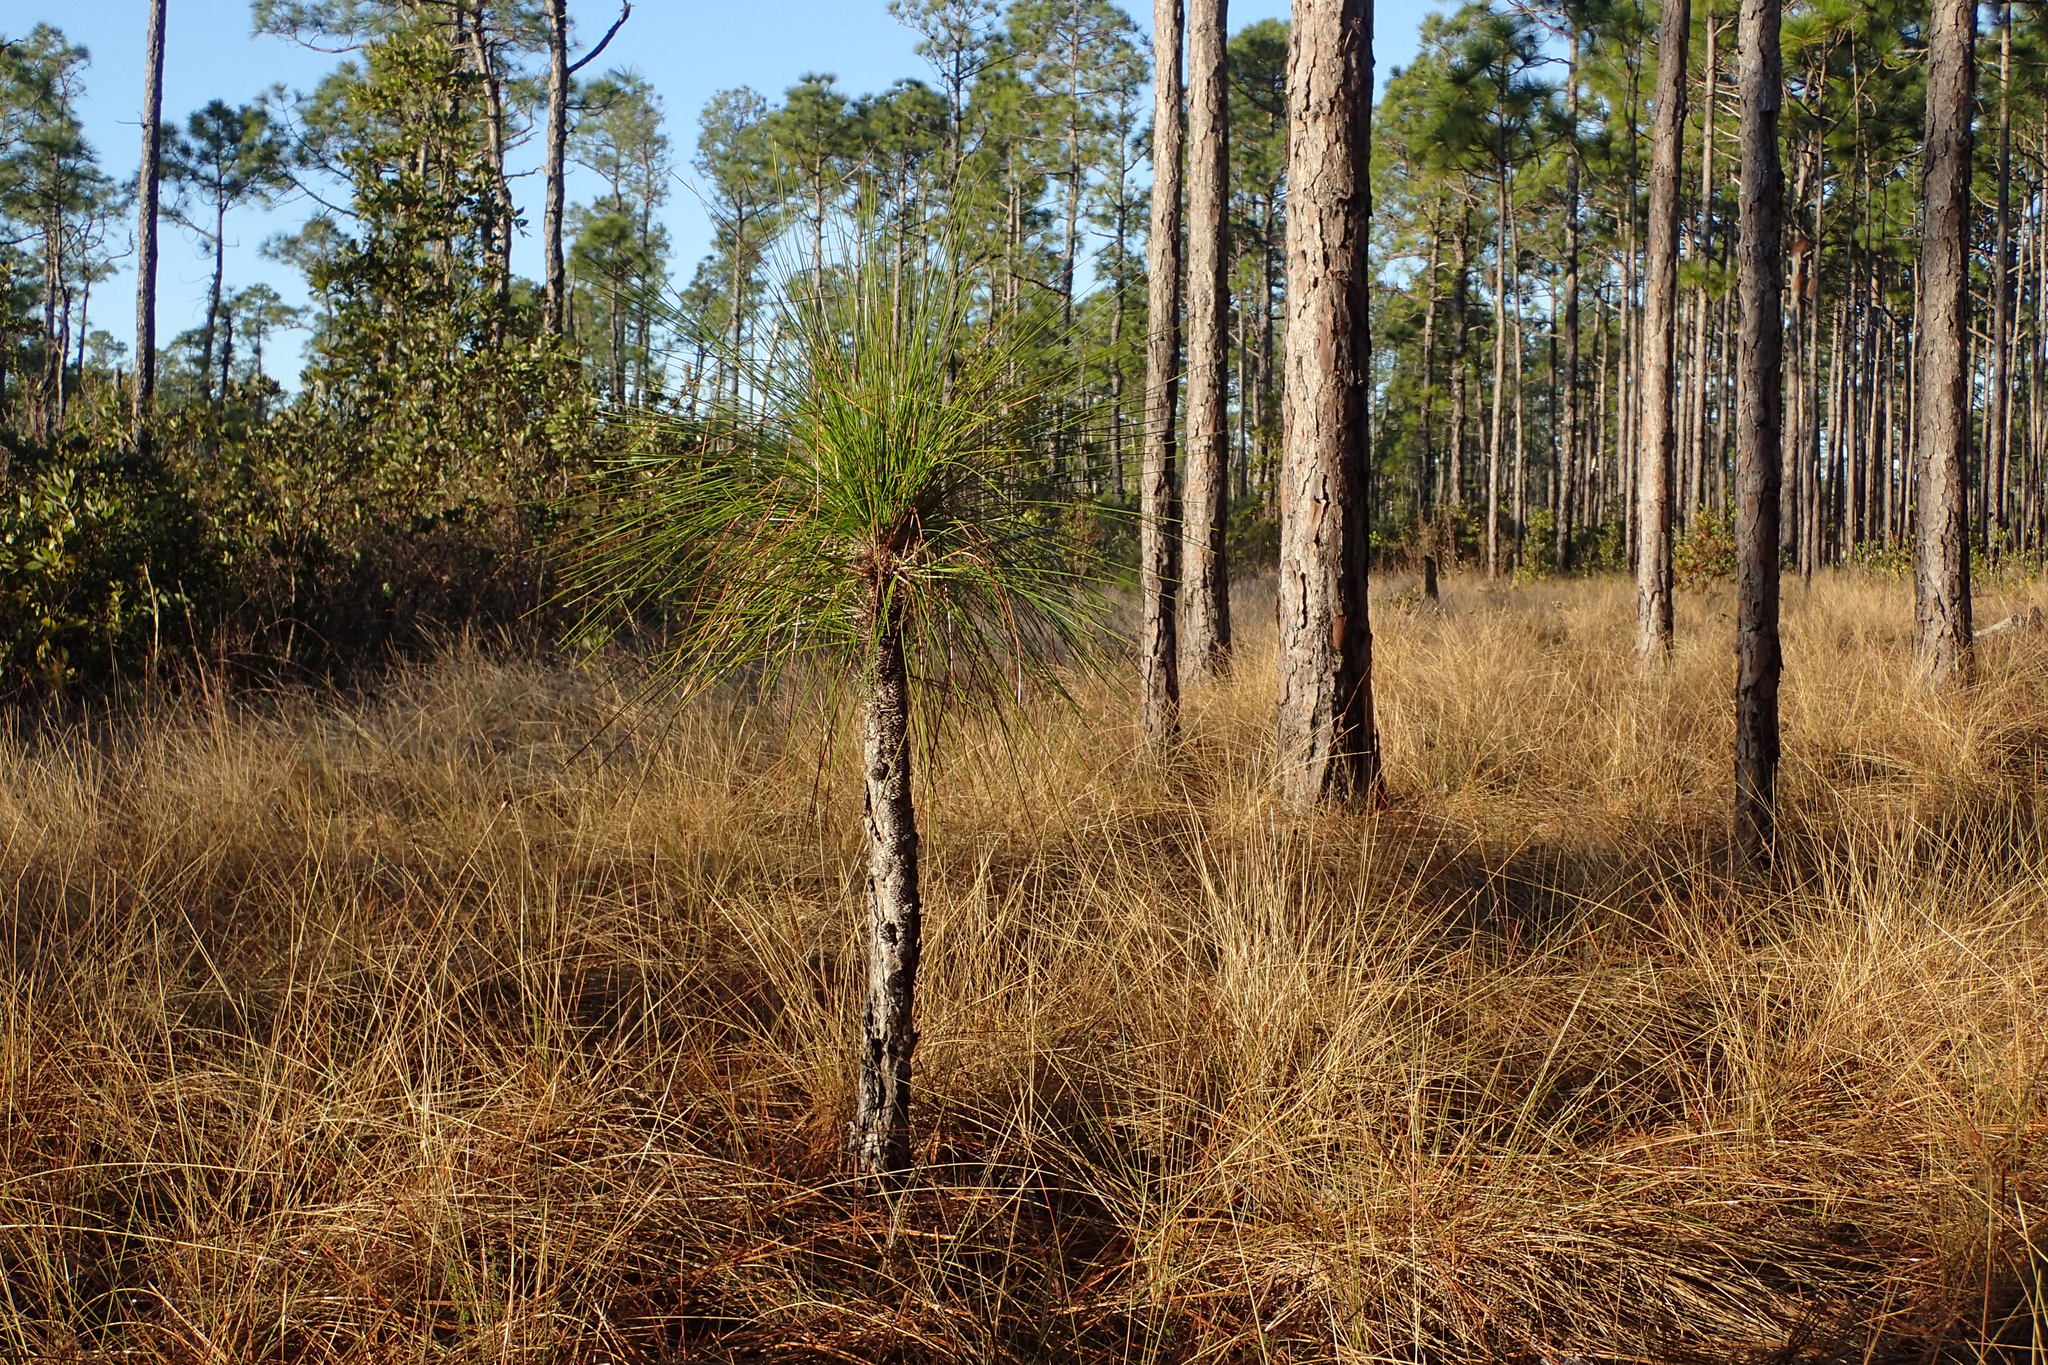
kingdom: Plantae
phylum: Tracheophyta
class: Pinopsida
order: Pinales
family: Pinaceae
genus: Pinus
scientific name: Pinus palustris
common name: Longleaf pine
